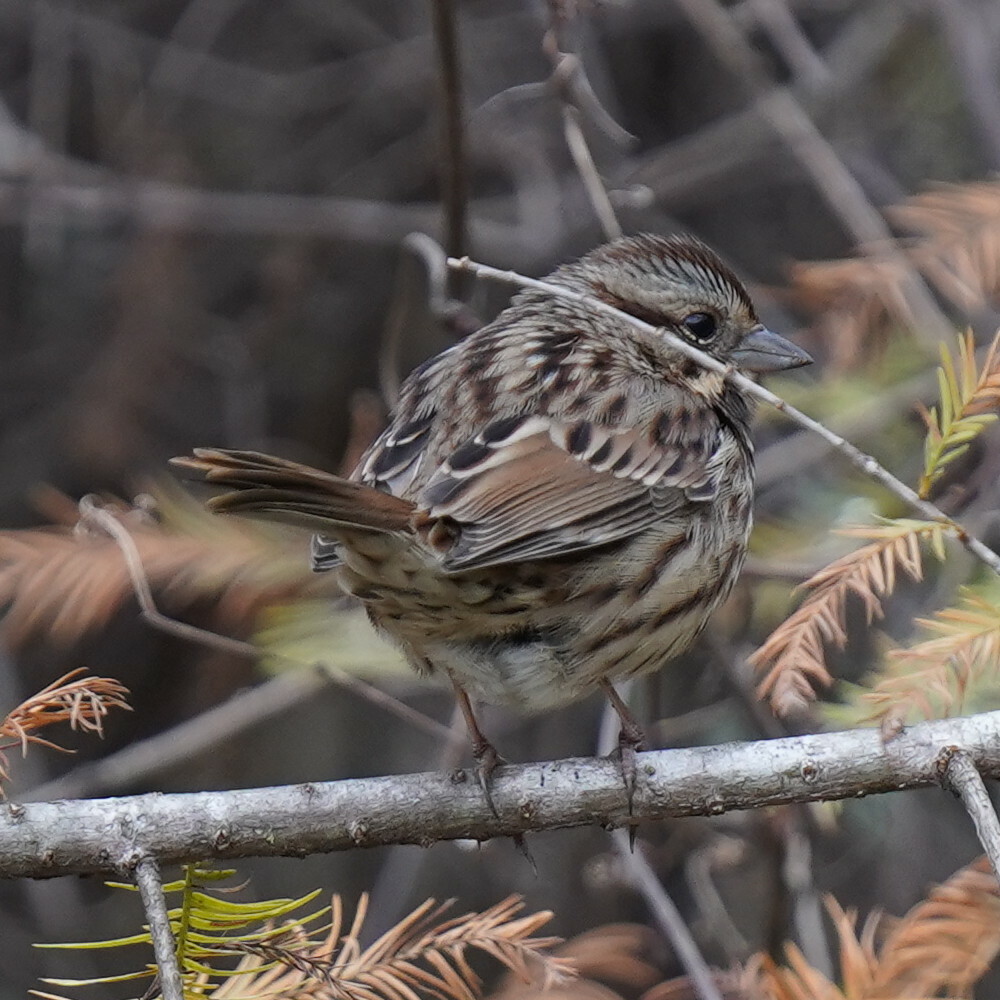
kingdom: Animalia
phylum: Chordata
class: Aves
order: Passeriformes
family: Passerellidae
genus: Melospiza
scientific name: Melospiza melodia
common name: Song sparrow
